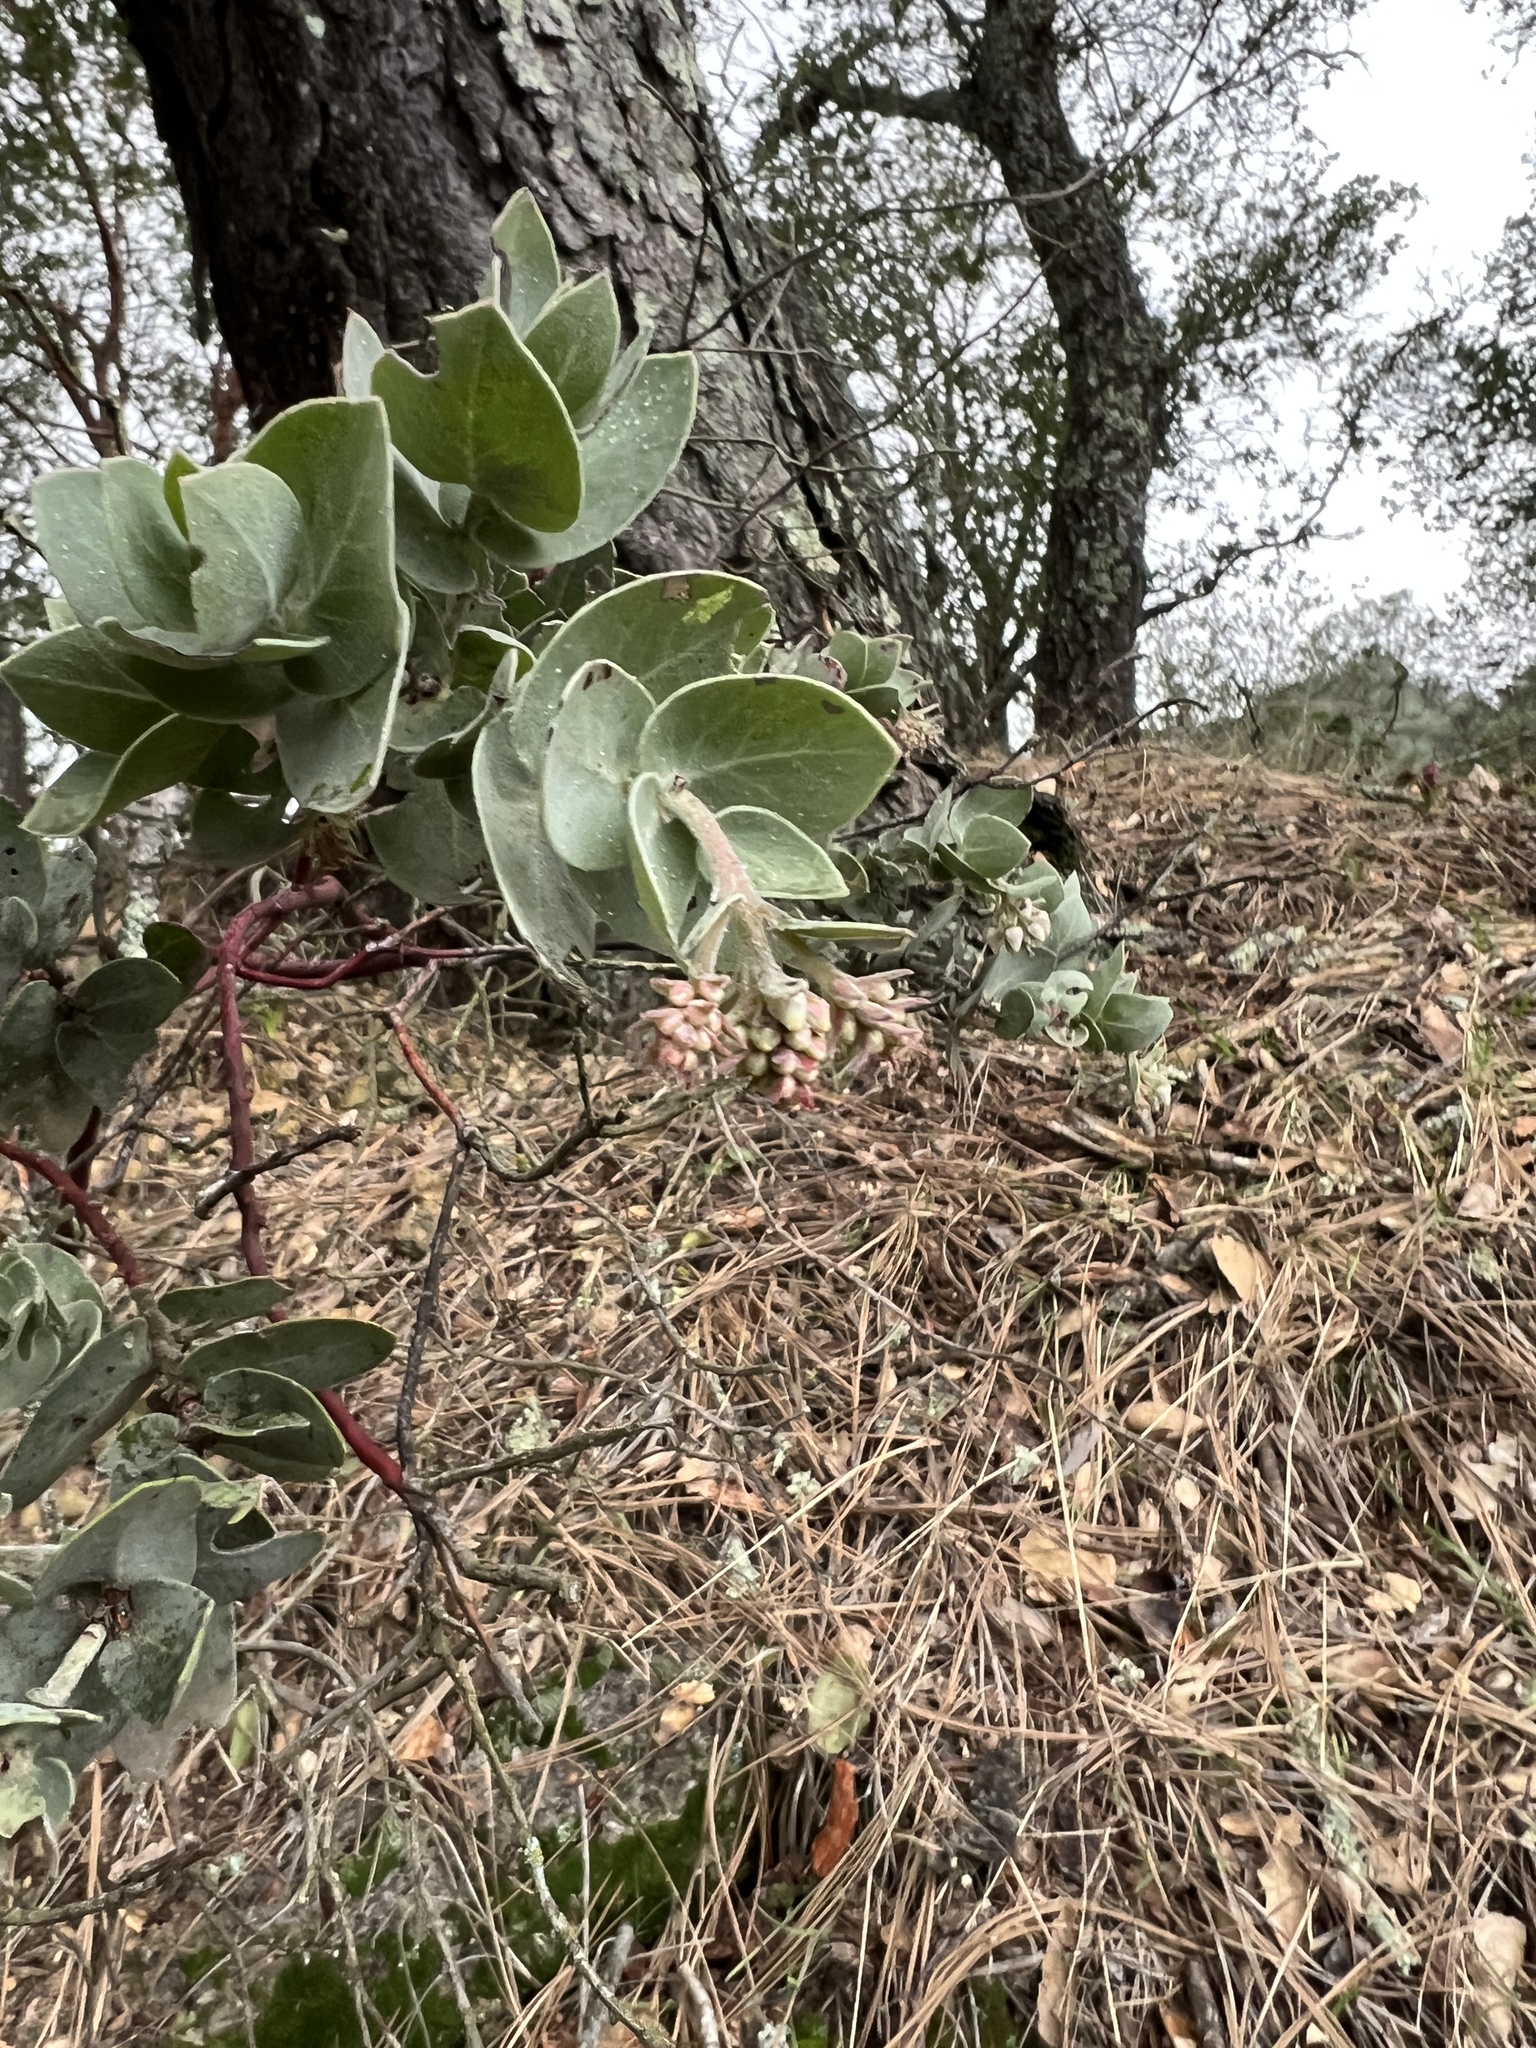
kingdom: Plantae
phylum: Tracheophyta
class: Magnoliopsida
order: Ericales
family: Ericaceae
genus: Arctostaphylos
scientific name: Arctostaphylos auriculata
